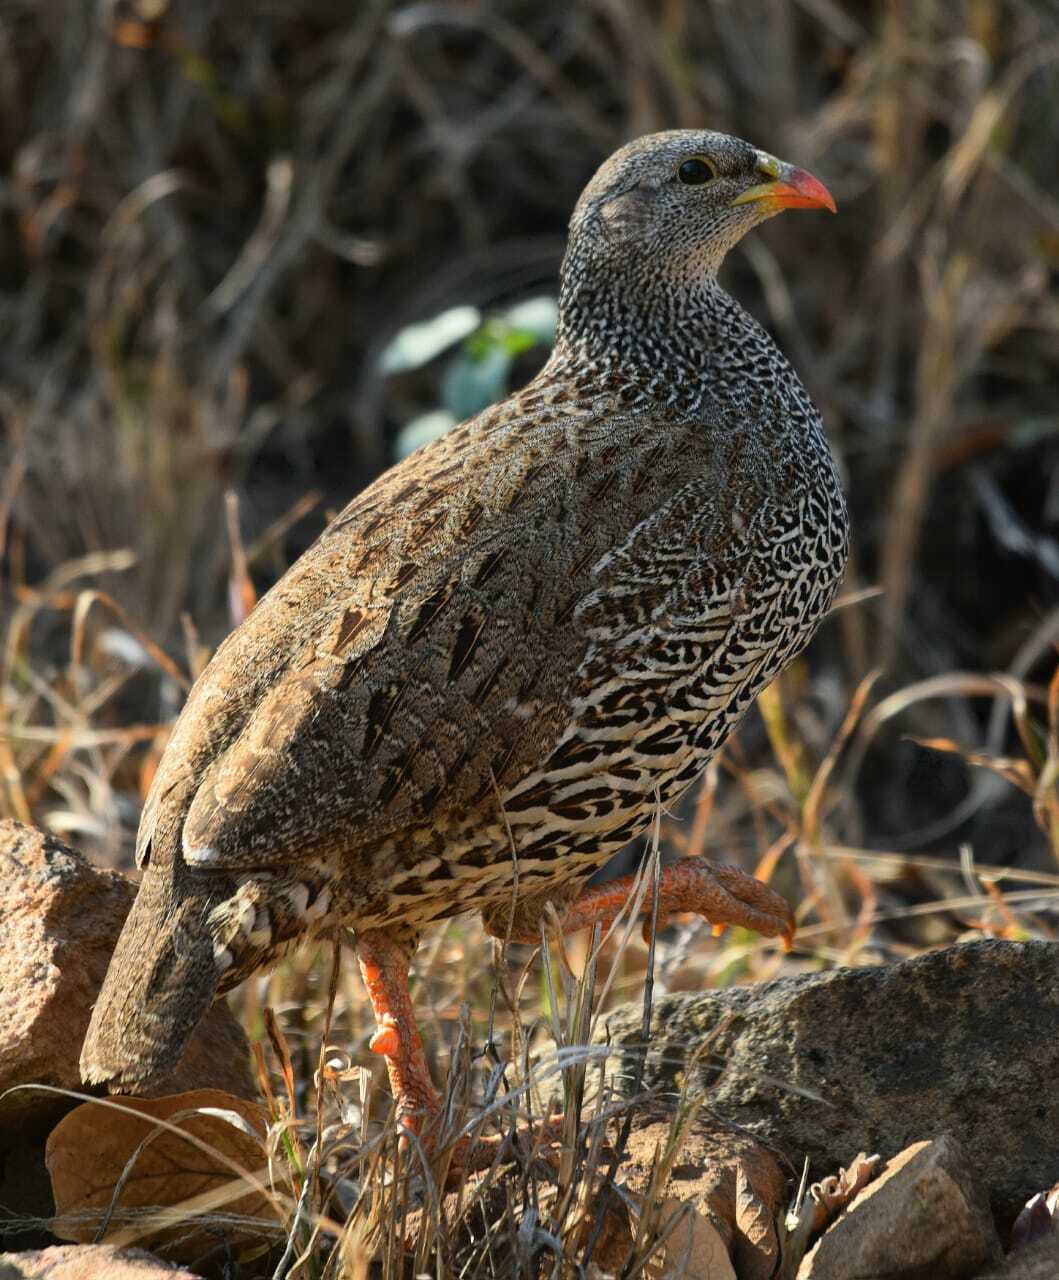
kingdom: Animalia
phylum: Chordata
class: Aves
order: Galliformes
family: Phasianidae
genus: Pternistis
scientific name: Pternistis natalensis
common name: Natal spurfowl
